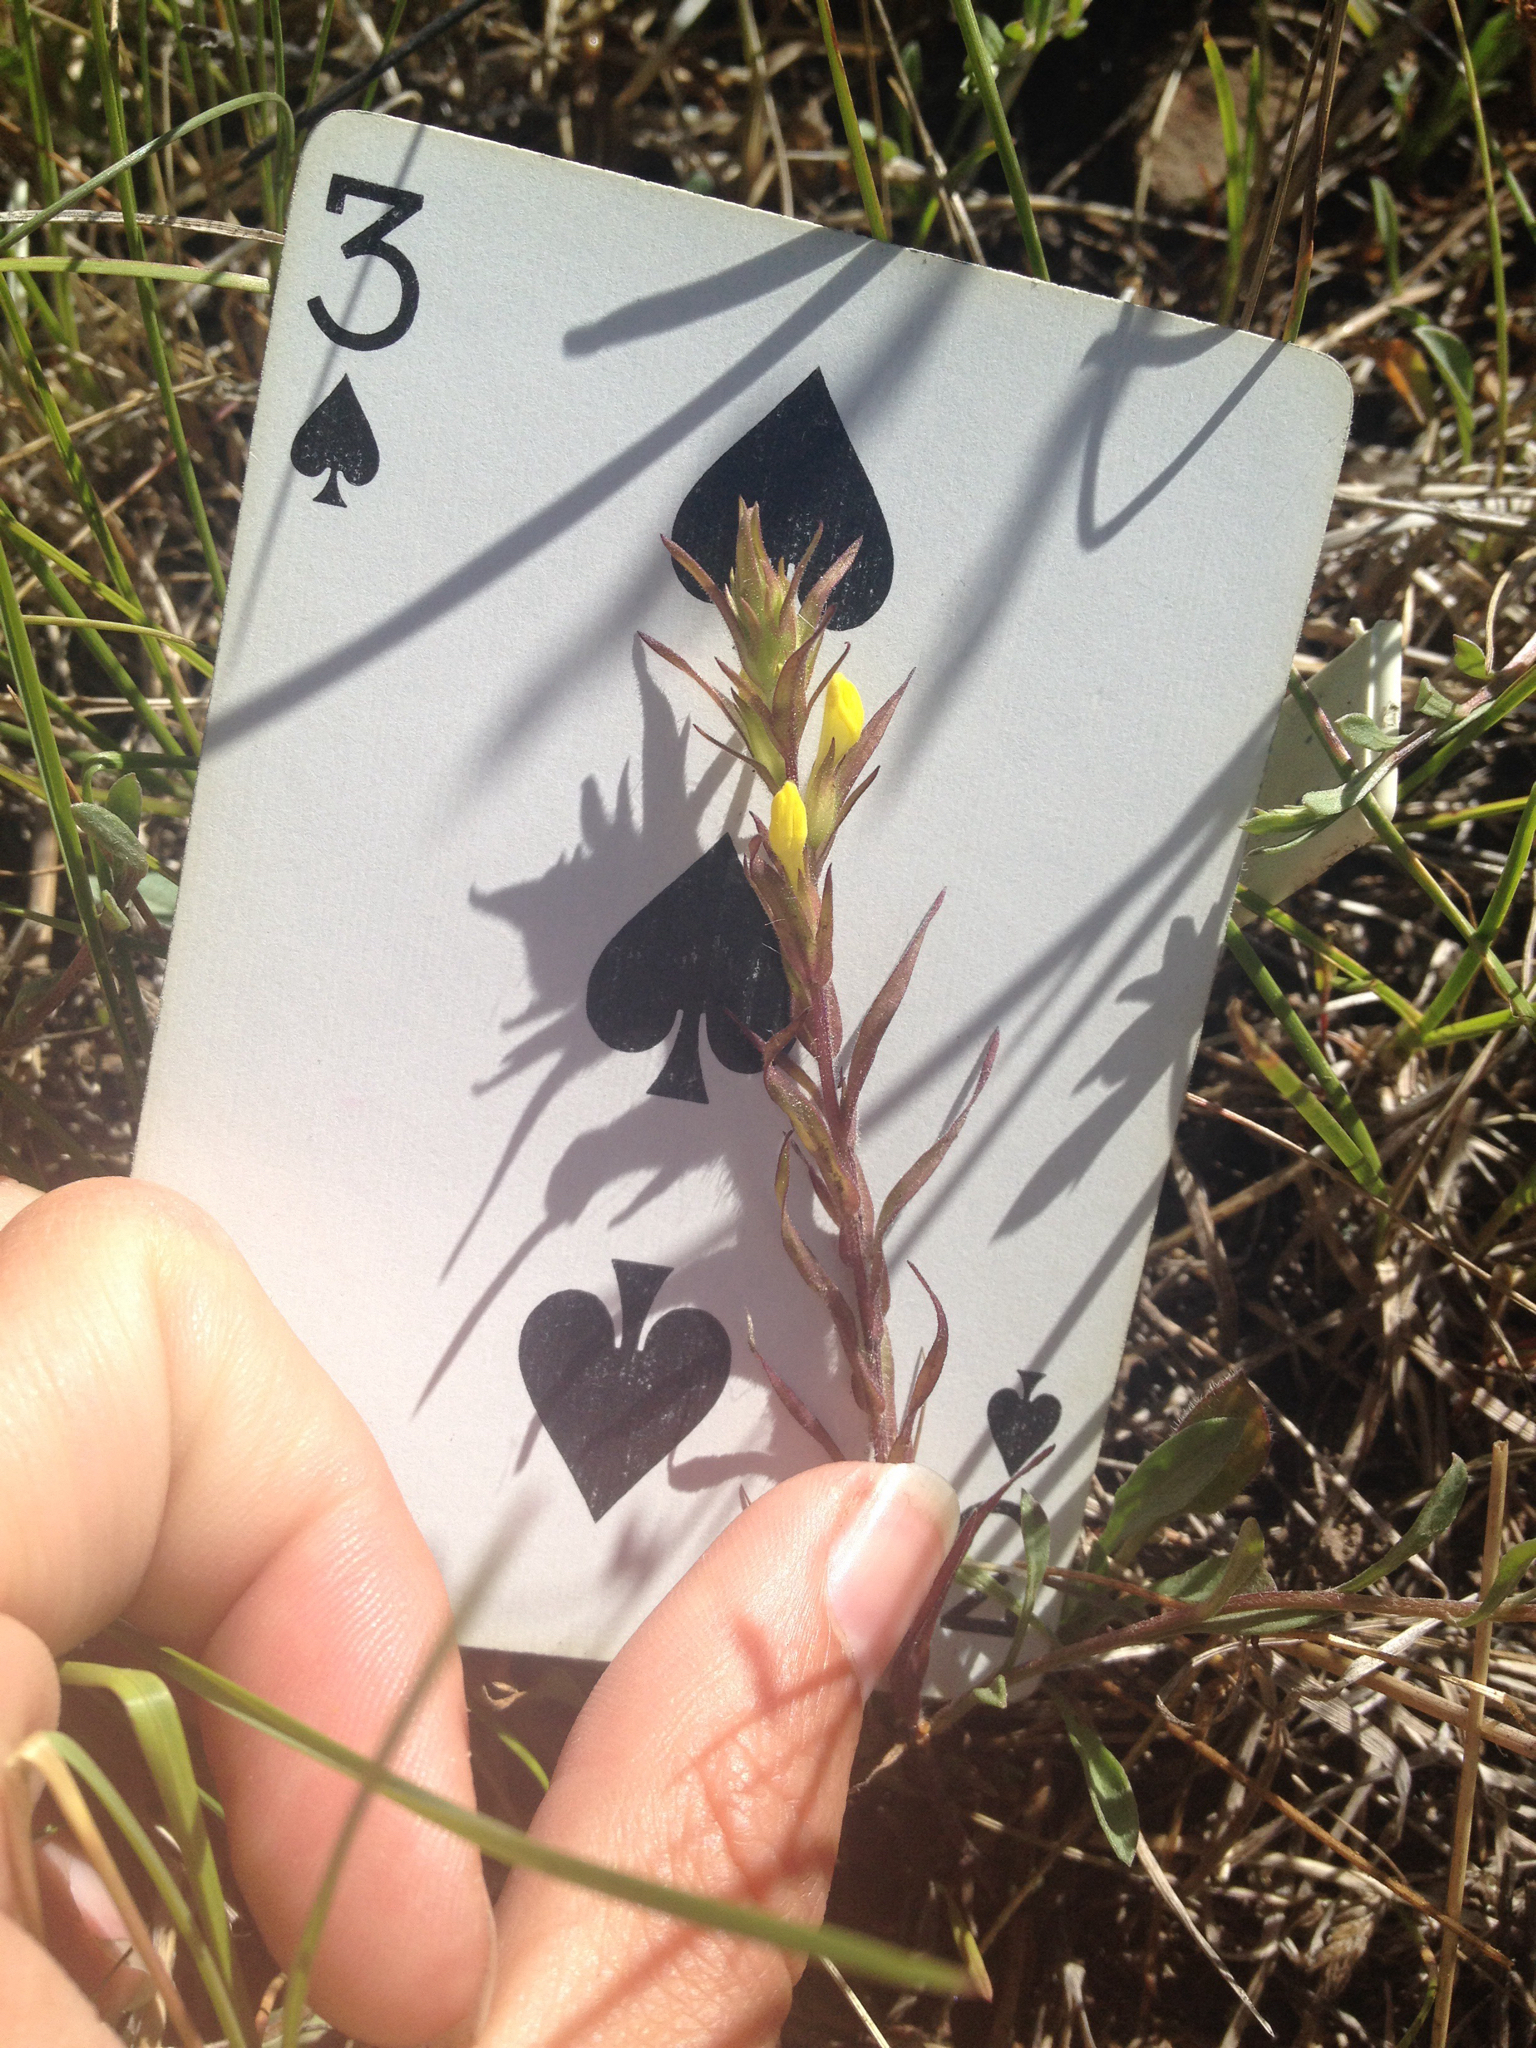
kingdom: Plantae
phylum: Tracheophyta
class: Magnoliopsida
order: Lamiales
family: Orobanchaceae
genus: Orthocarpus
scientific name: Orthocarpus luteus
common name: Golden-tongue owl's-clover
